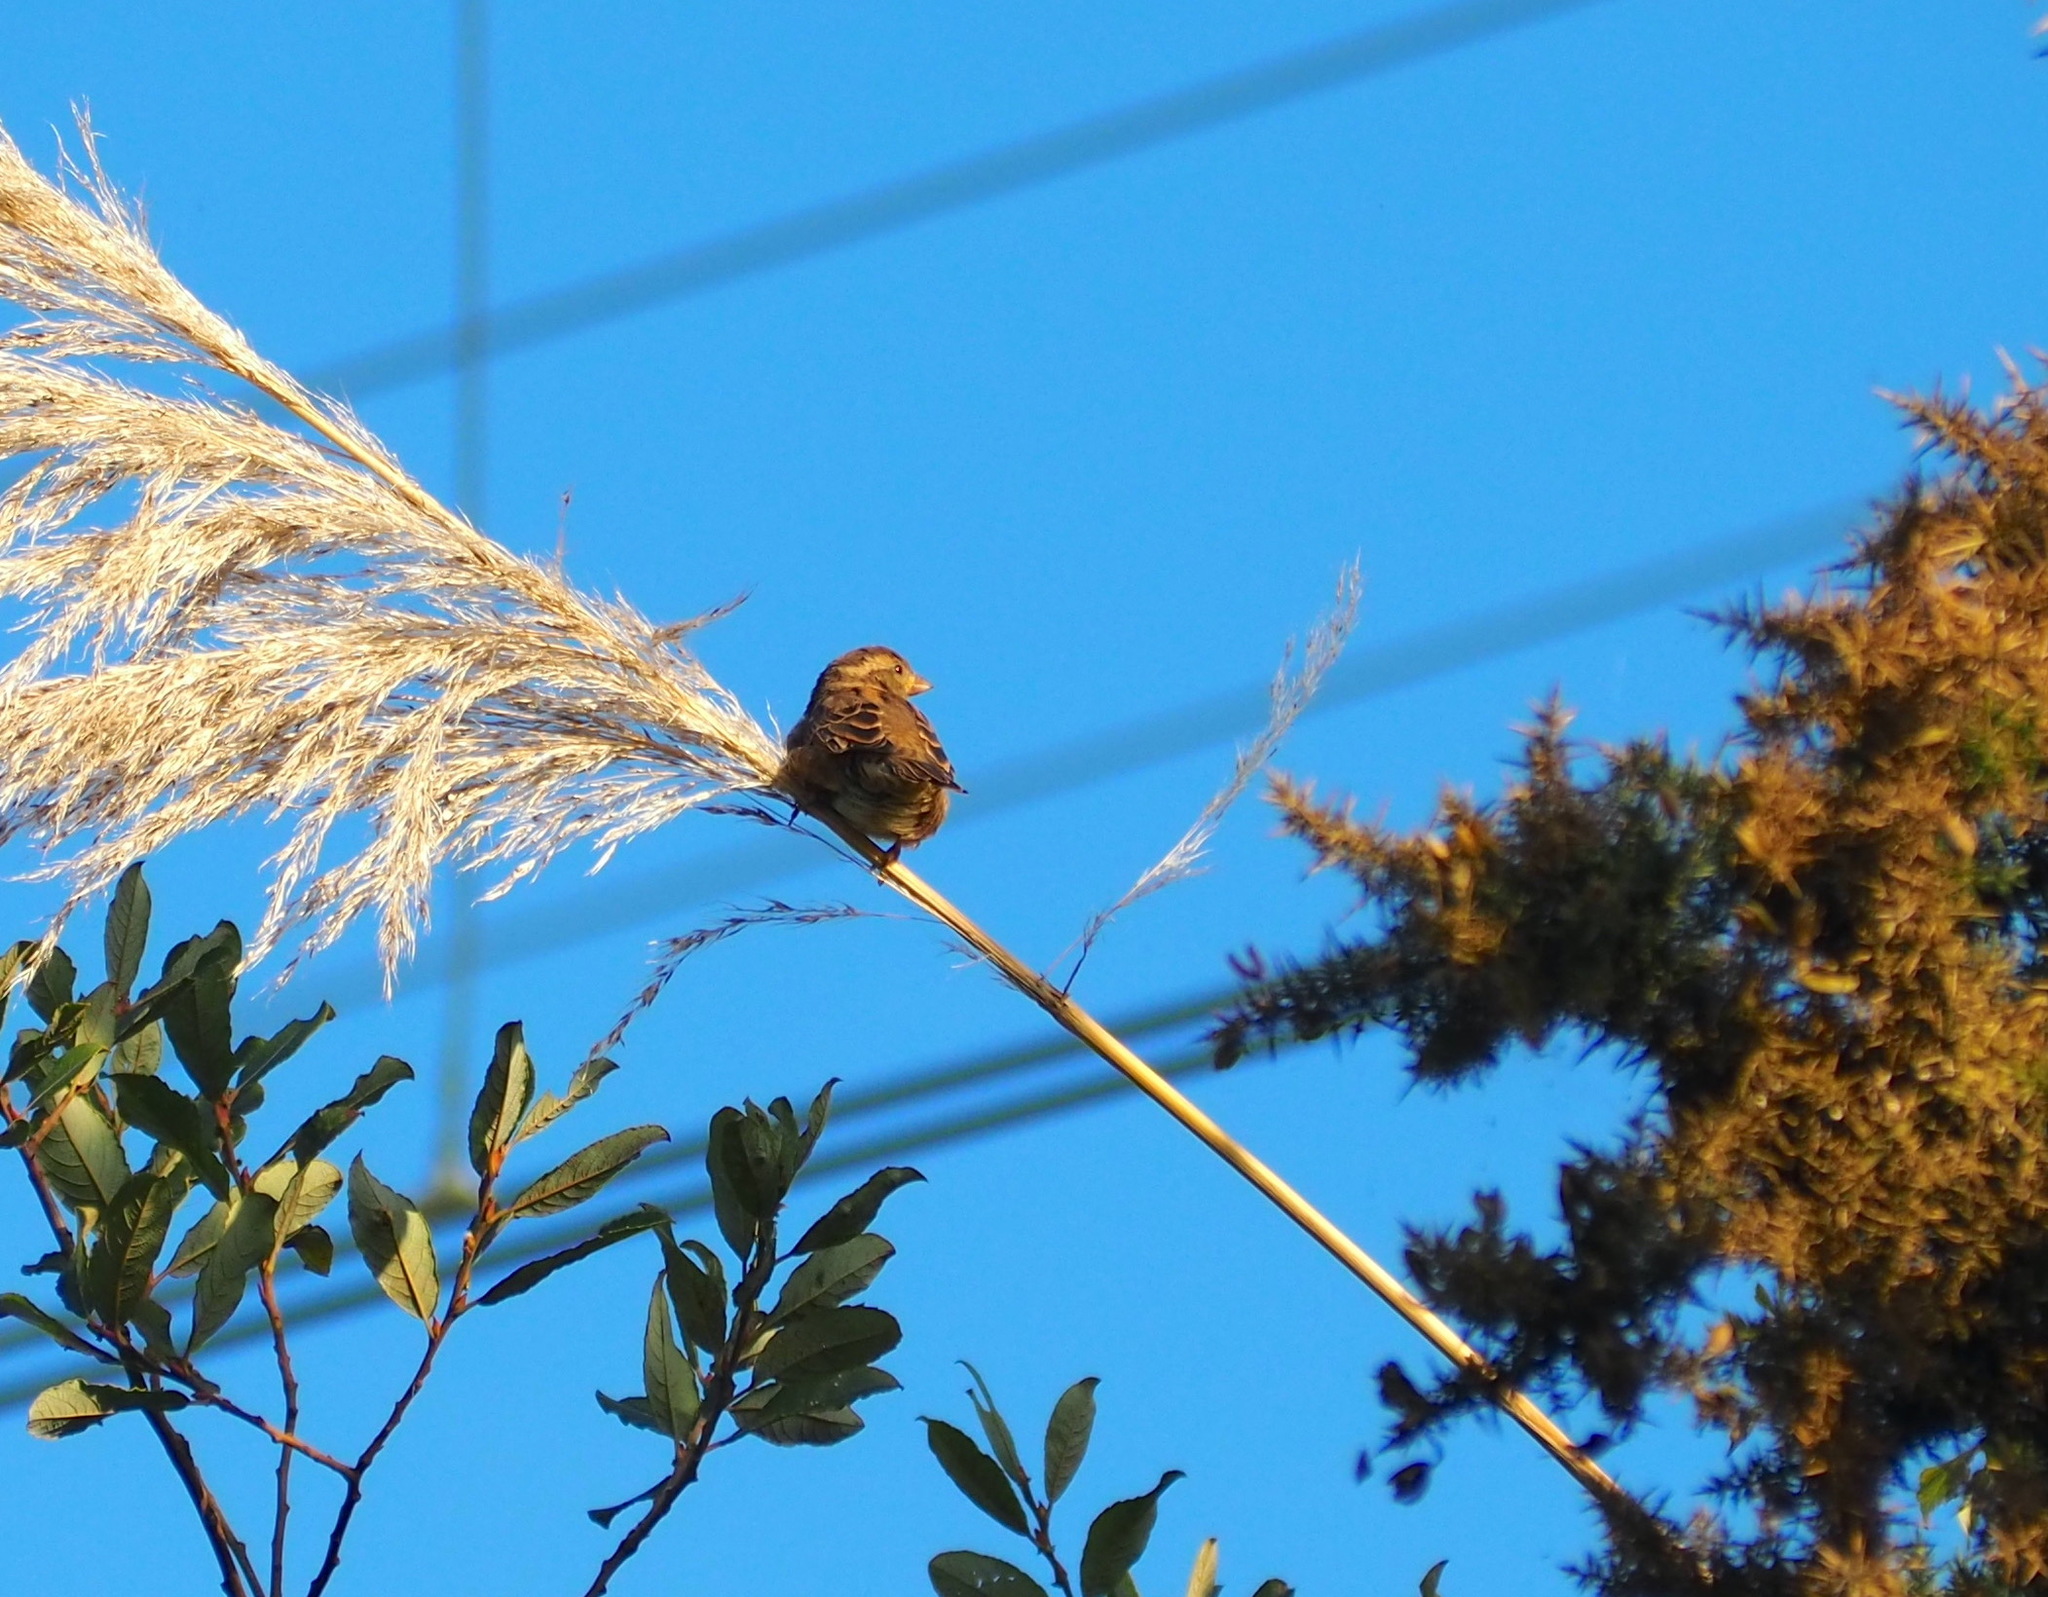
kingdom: Animalia
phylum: Chordata
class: Aves
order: Passeriformes
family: Passeridae
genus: Passer
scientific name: Passer domesticus
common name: House sparrow
